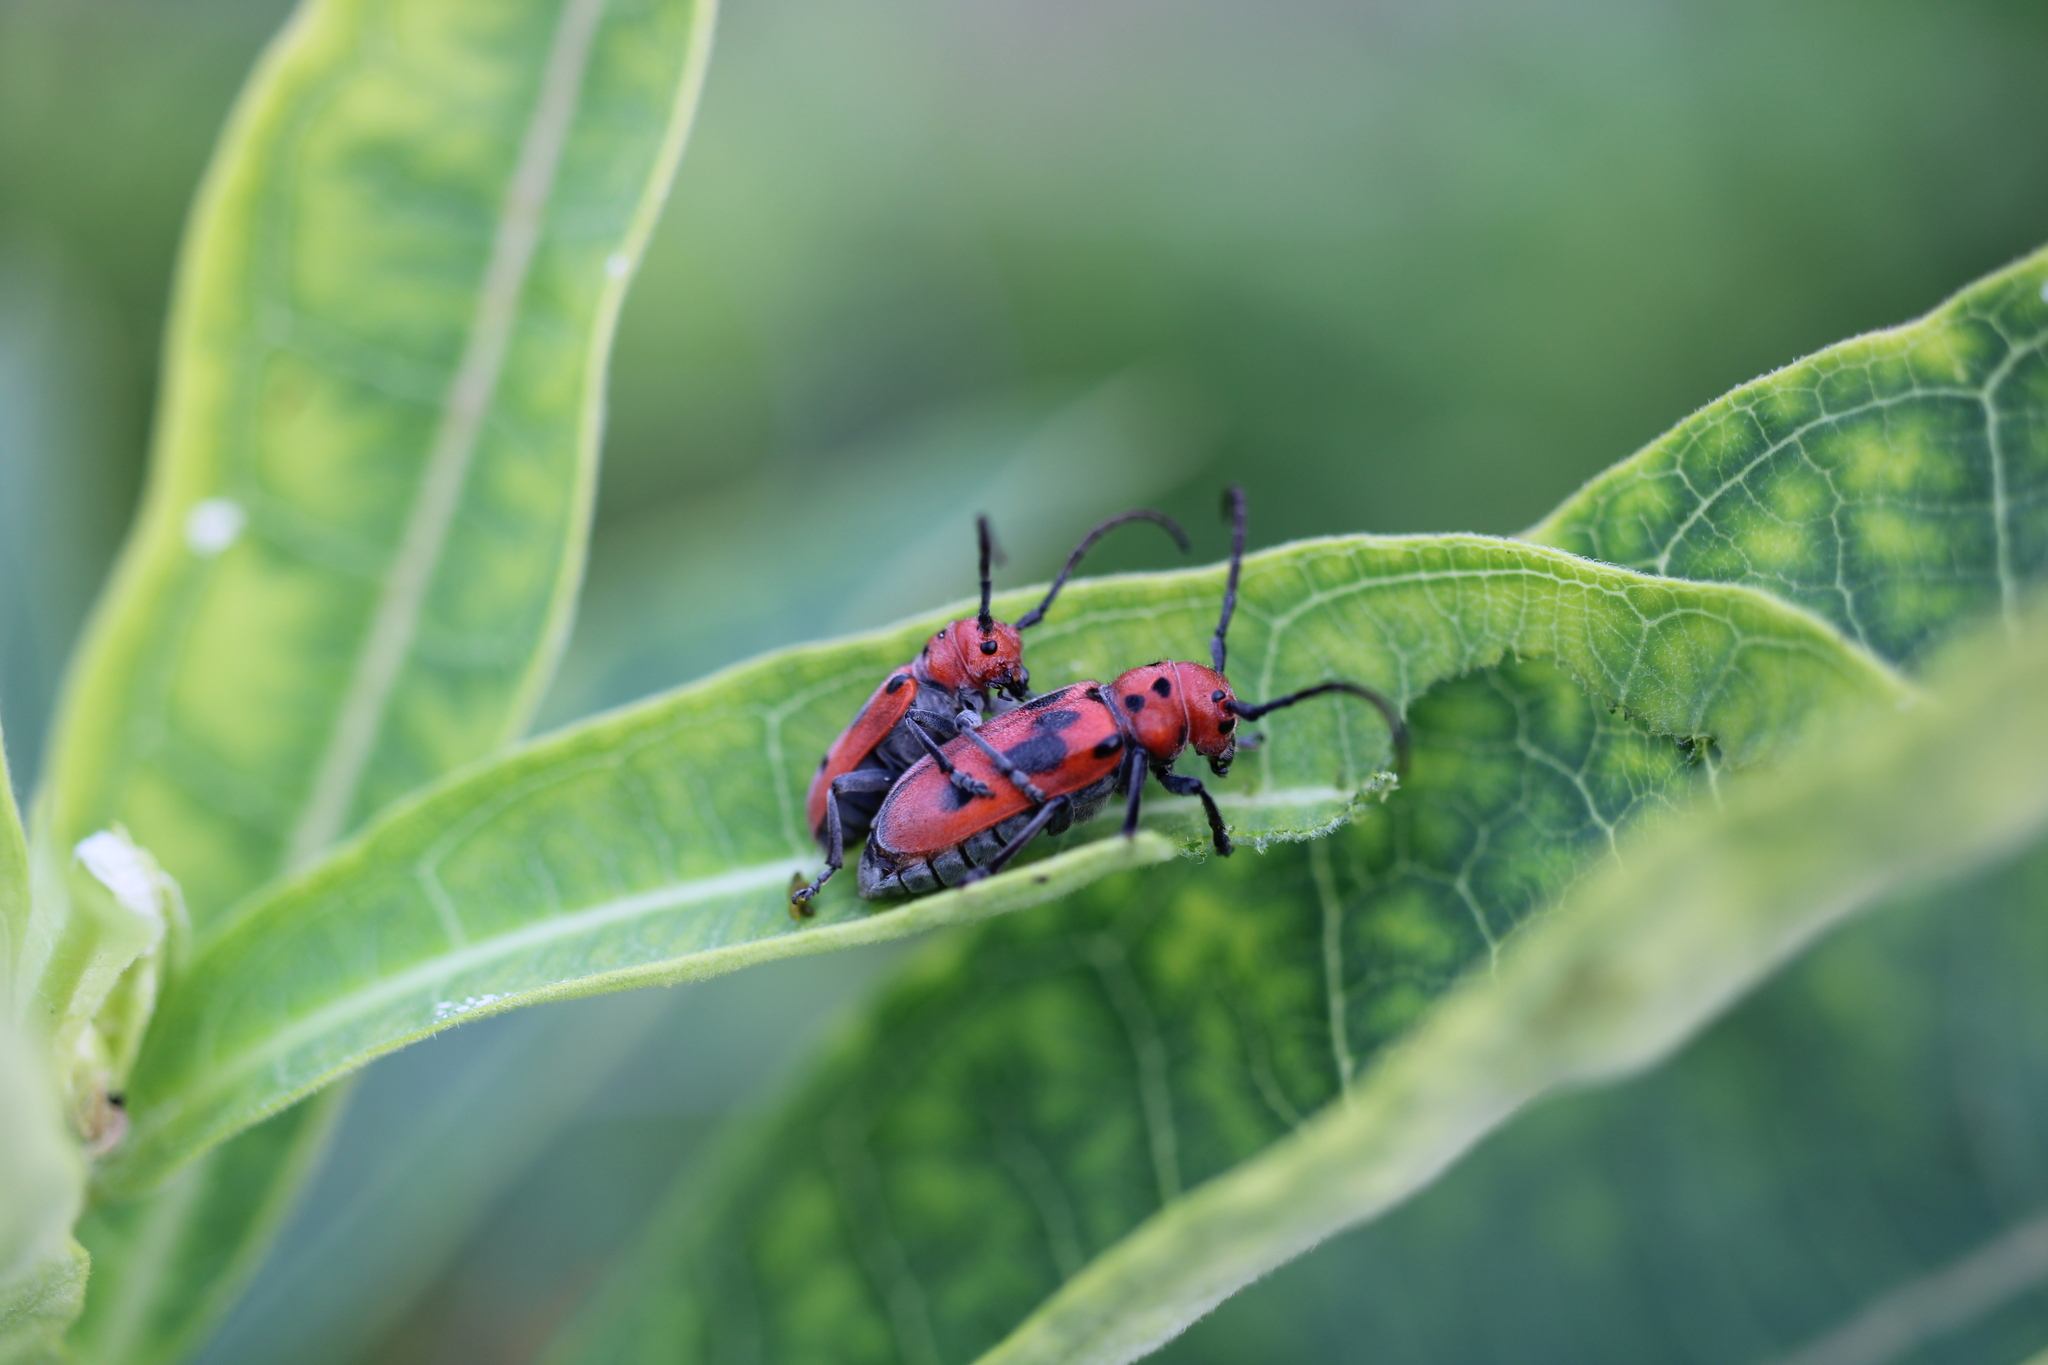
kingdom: Animalia
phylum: Arthropoda
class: Insecta
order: Coleoptera
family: Cerambycidae
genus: Tetraopes
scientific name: Tetraopes tetrophthalmus
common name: Red milkweed beetle
